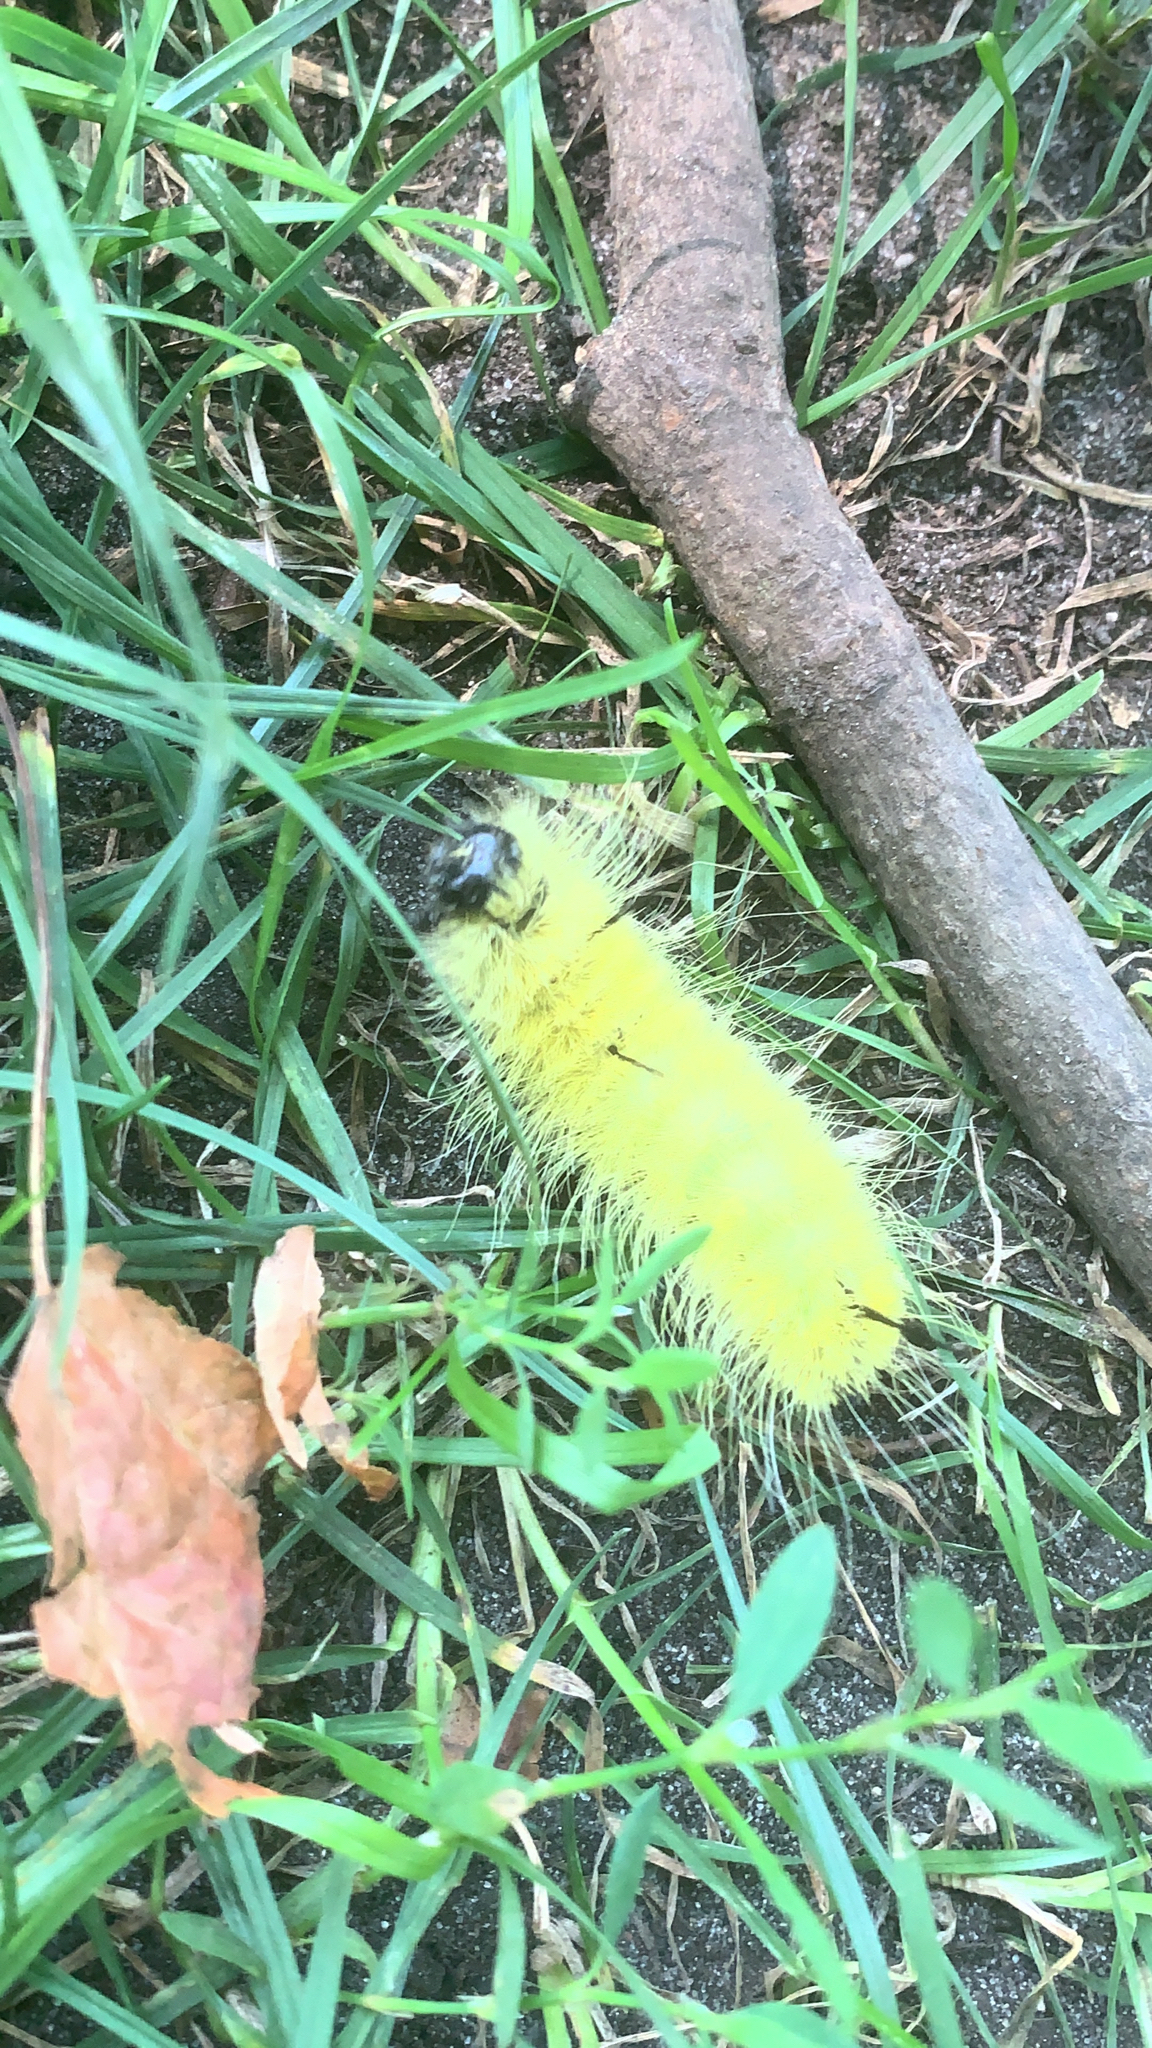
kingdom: Animalia
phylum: Arthropoda
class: Insecta
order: Lepidoptera
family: Noctuidae
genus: Acronicta
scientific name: Acronicta americana
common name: American dagger
